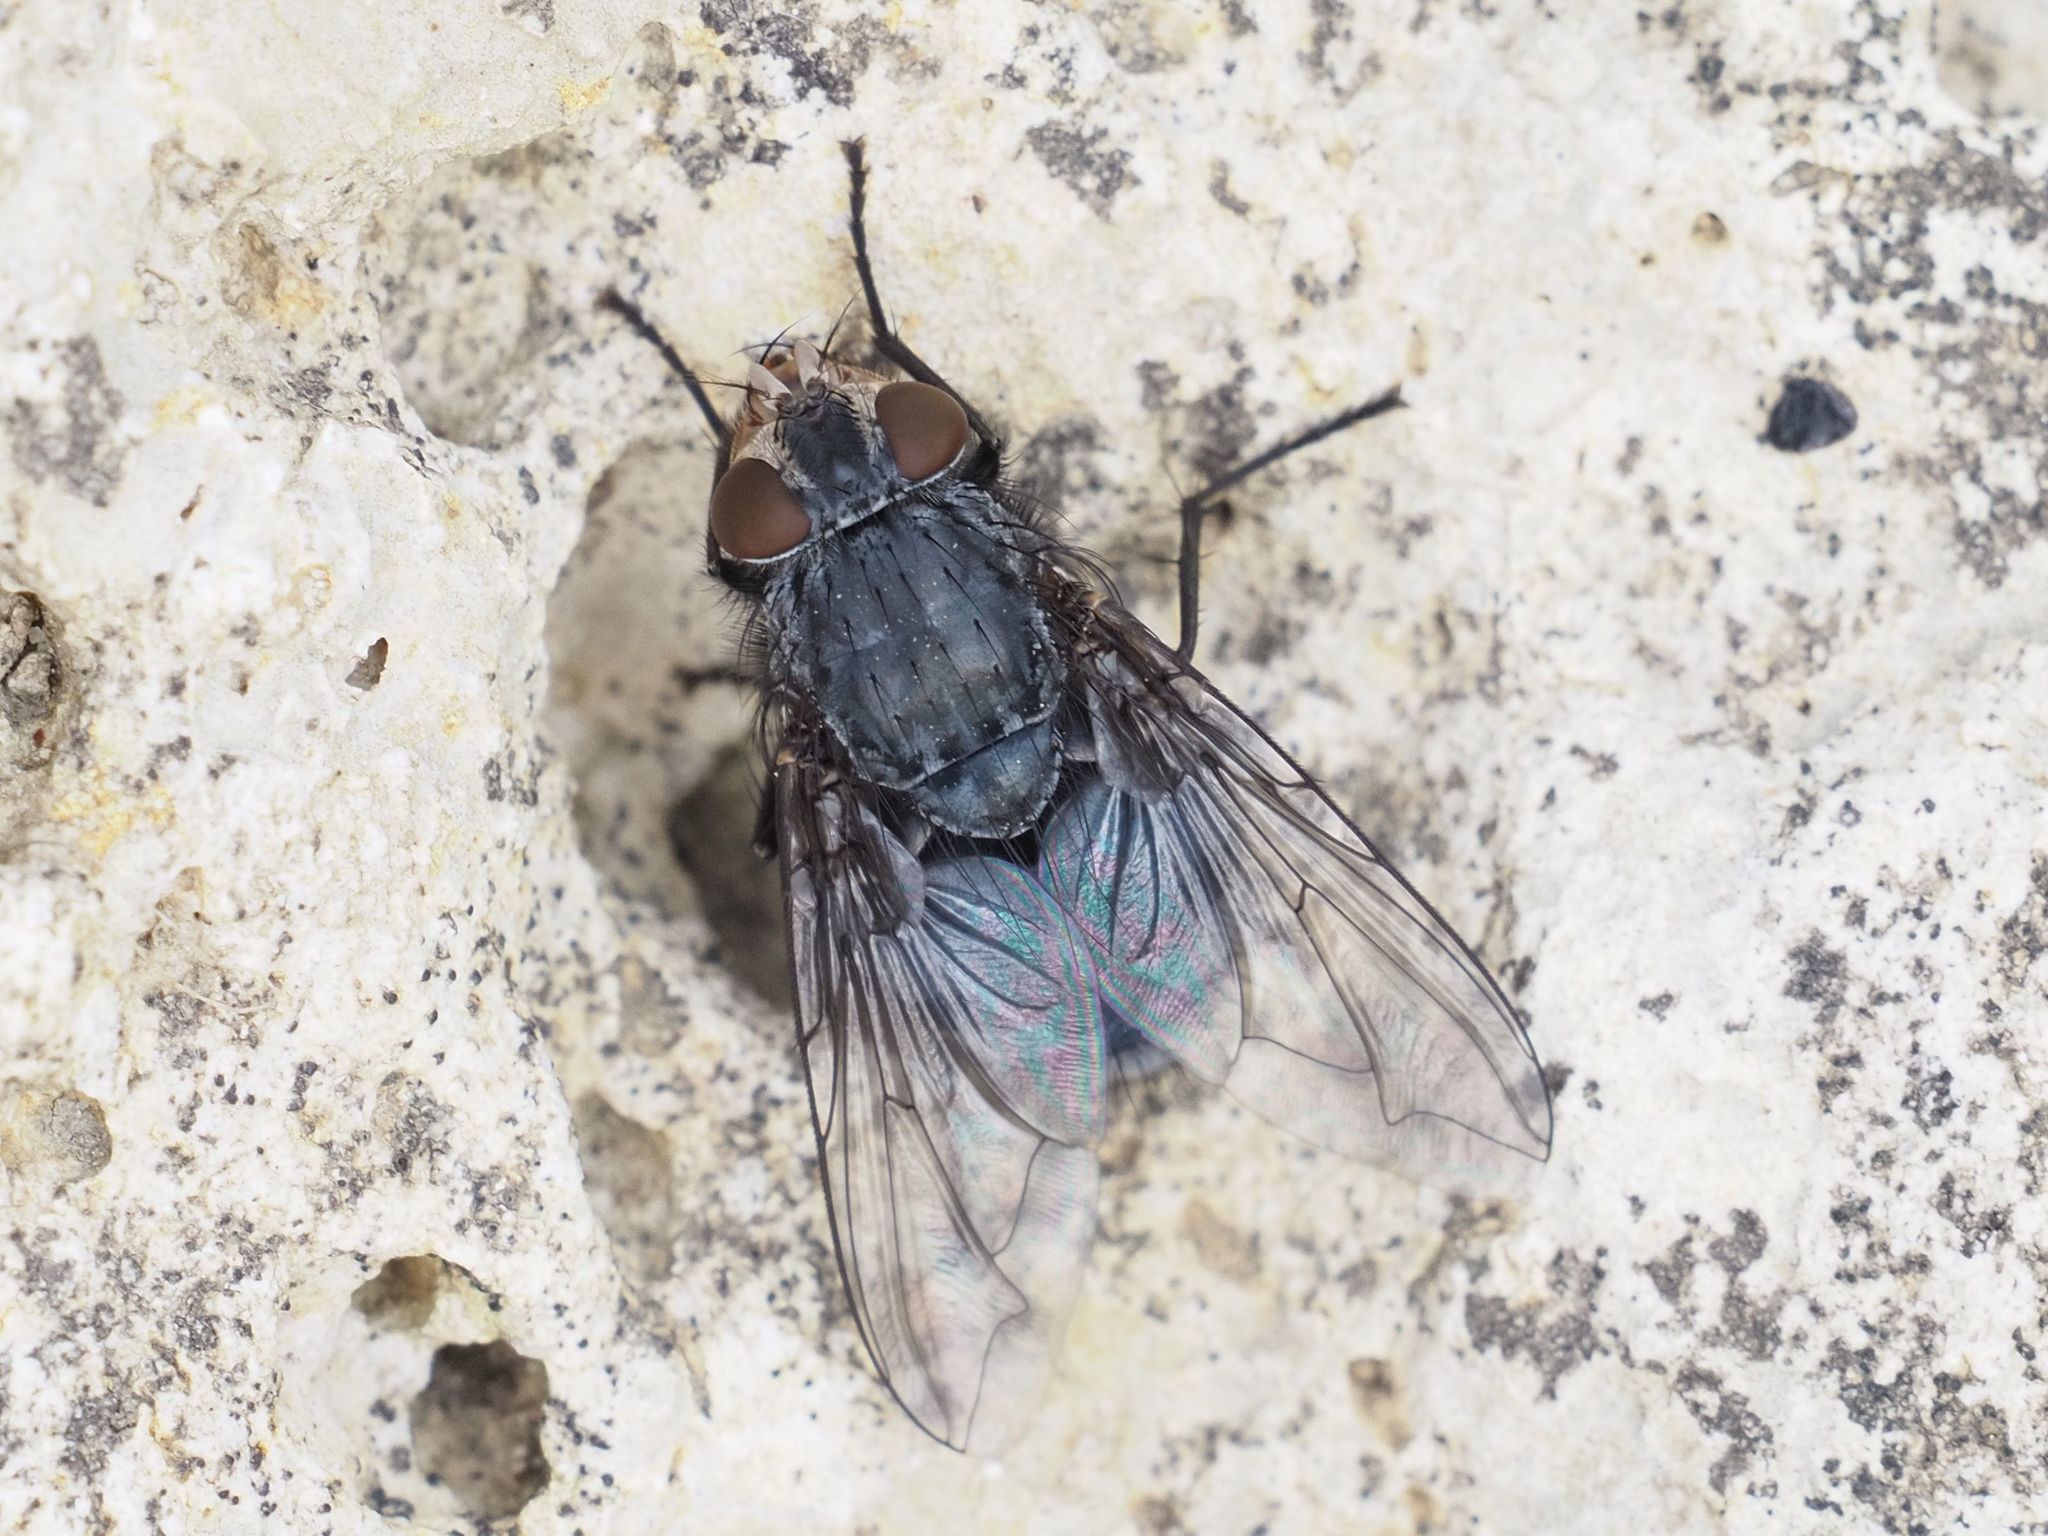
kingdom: Animalia
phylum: Arthropoda
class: Insecta
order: Diptera
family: Calliphoridae
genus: Calliphora
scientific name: Calliphora vicina
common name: Common blow flie
